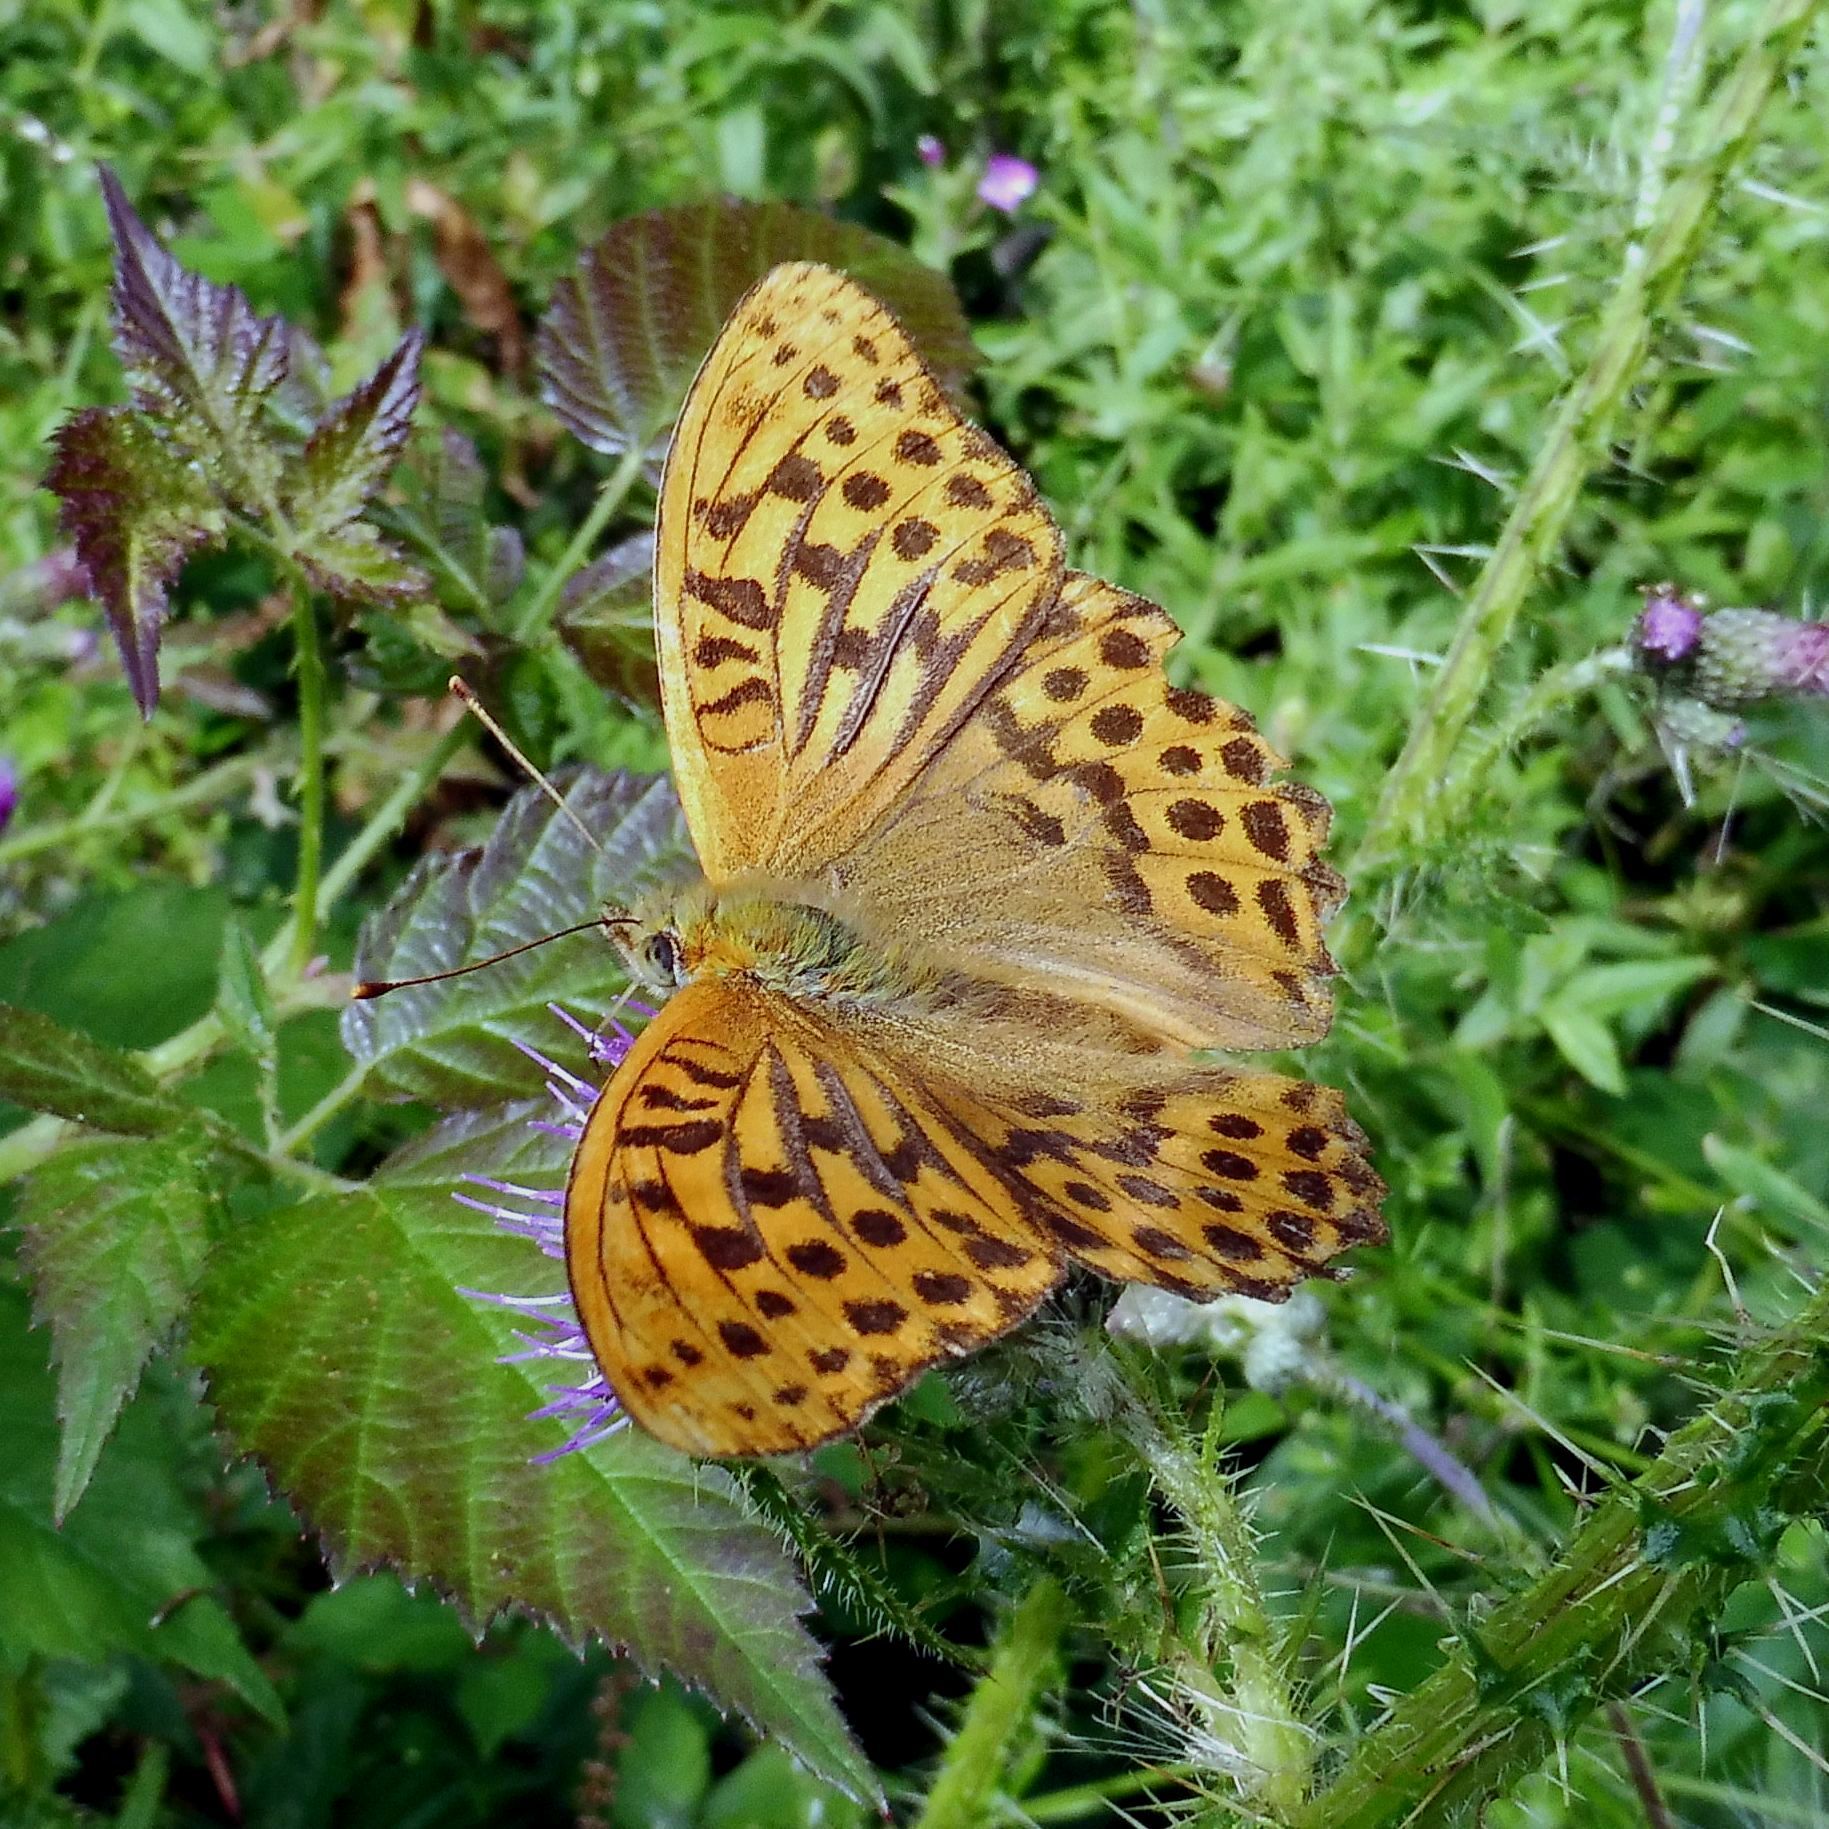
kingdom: Animalia
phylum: Arthropoda
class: Insecta
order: Lepidoptera
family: Nymphalidae
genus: Argynnis
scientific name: Argynnis paphia
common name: Silver-washed fritillary
